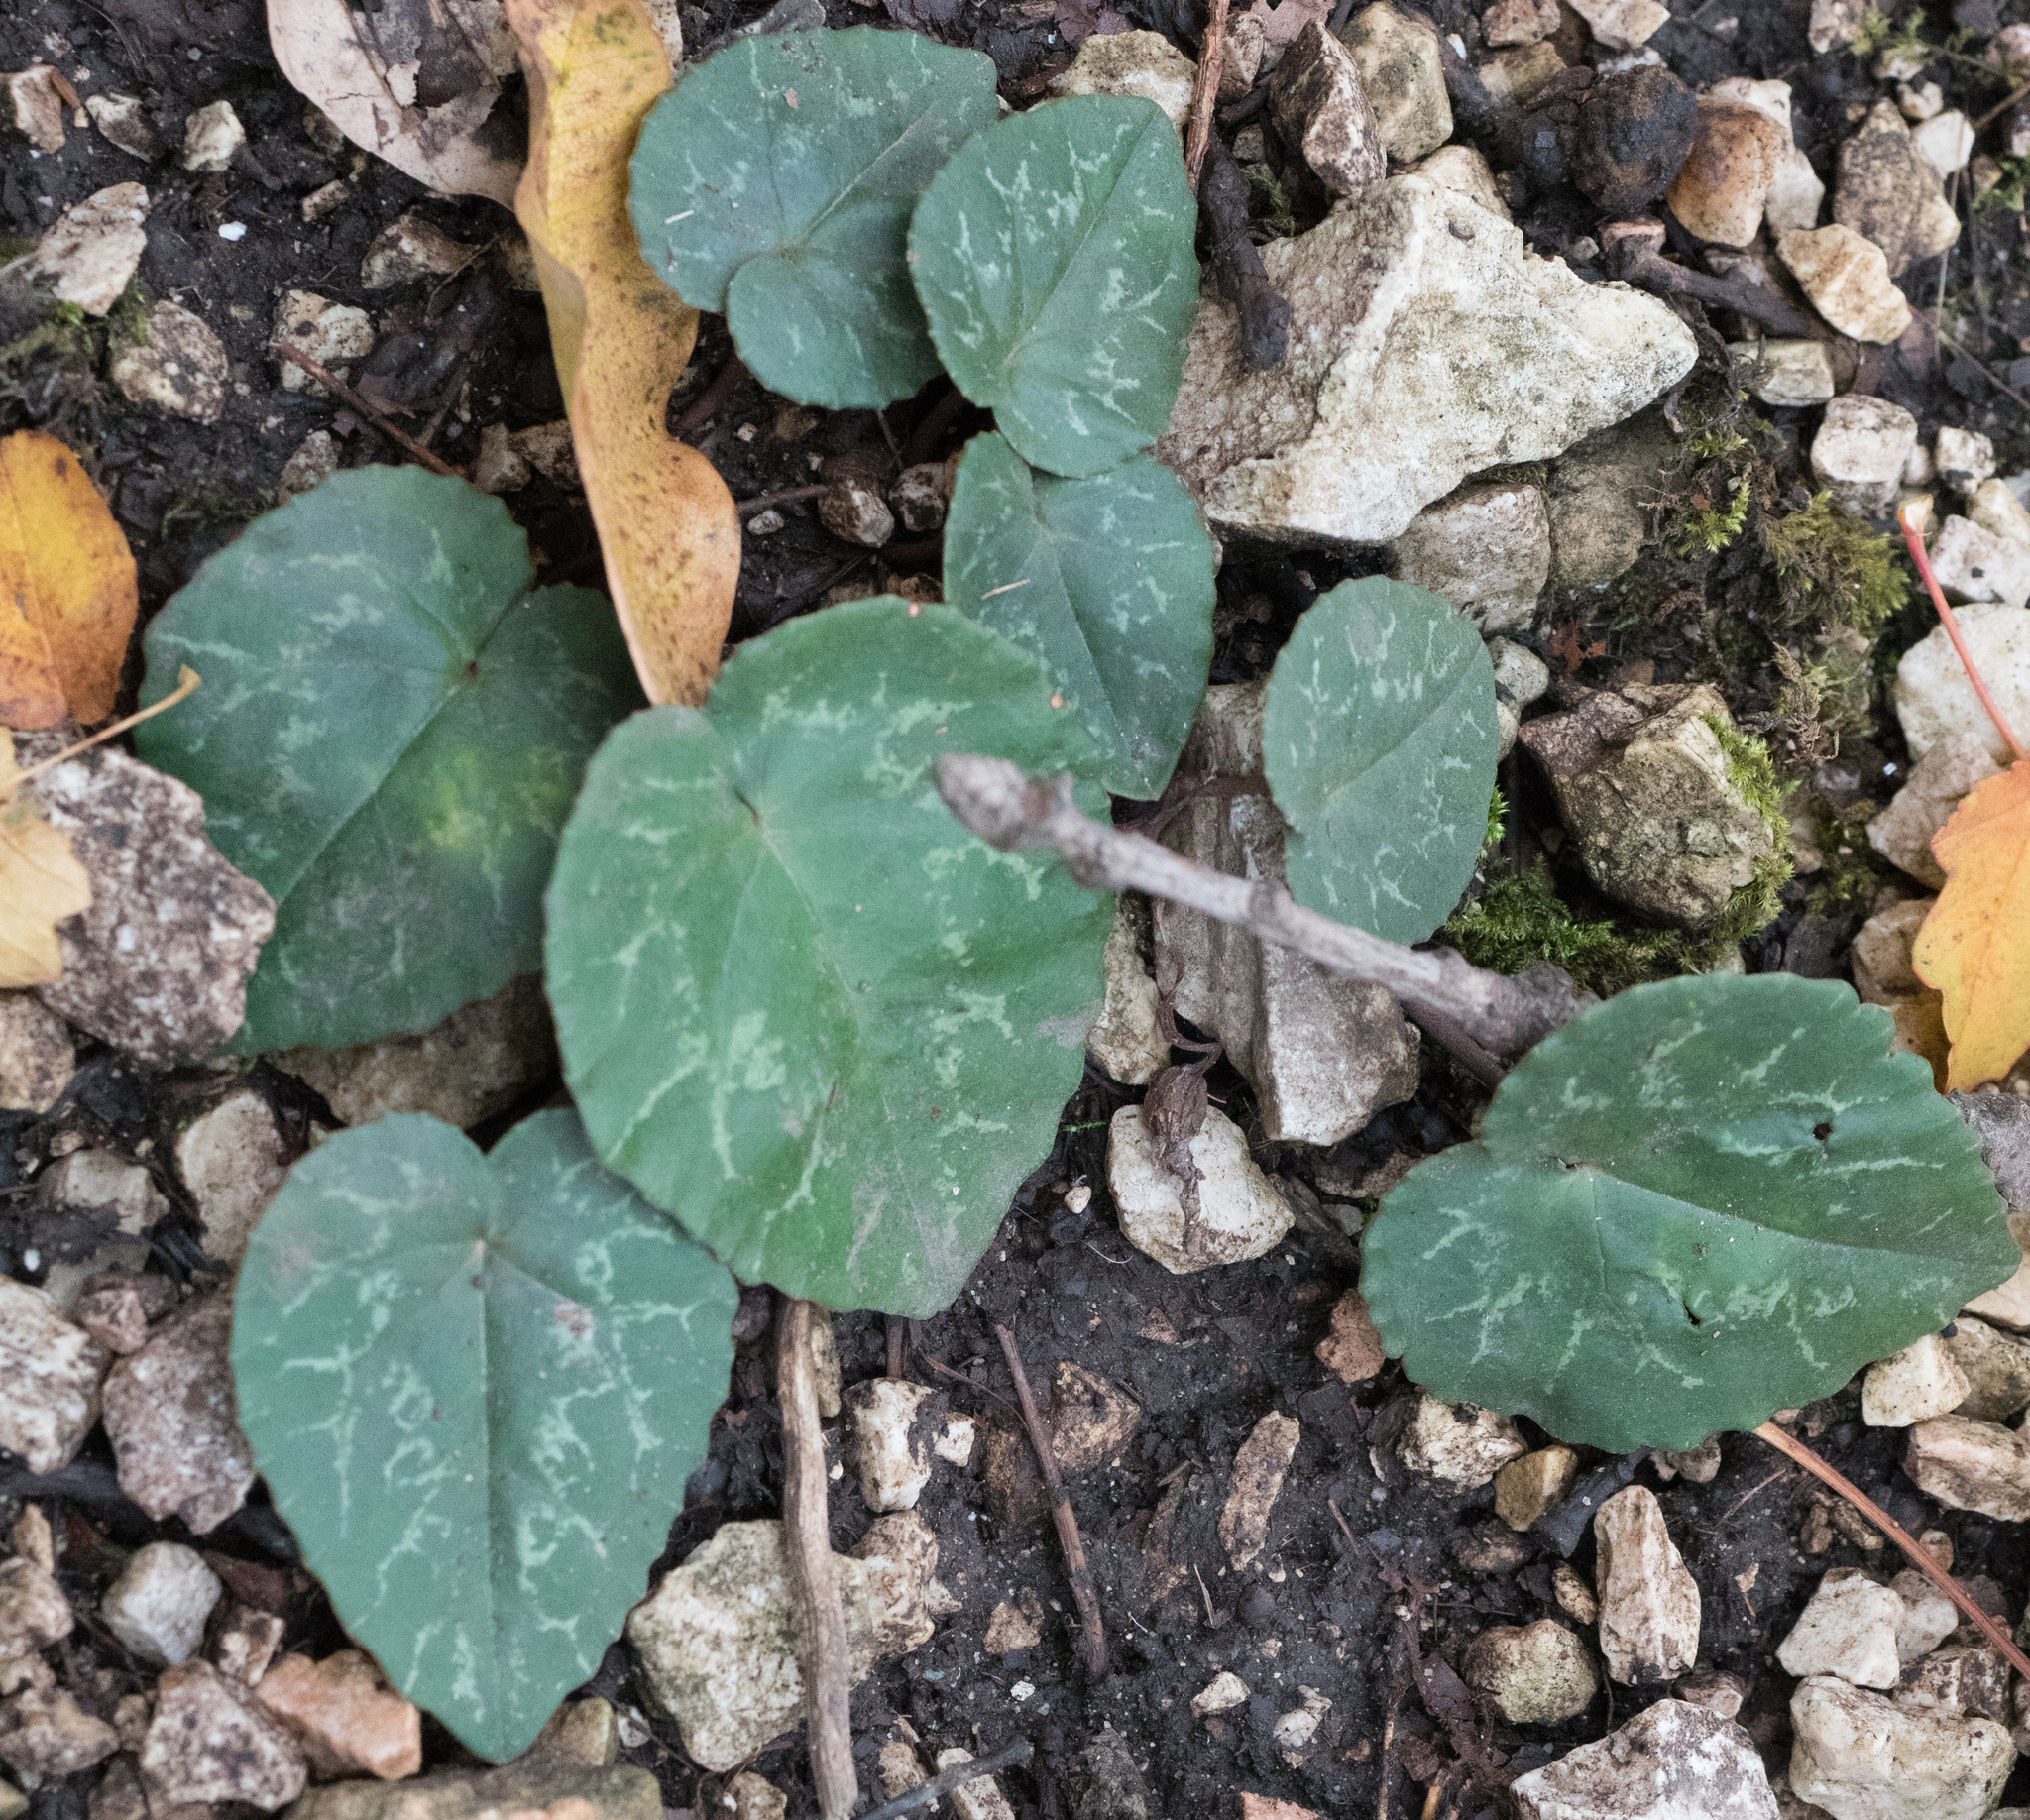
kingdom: Plantae
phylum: Tracheophyta
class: Magnoliopsida
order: Ericales
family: Primulaceae
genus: Cyclamen
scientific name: Cyclamen purpurascens
